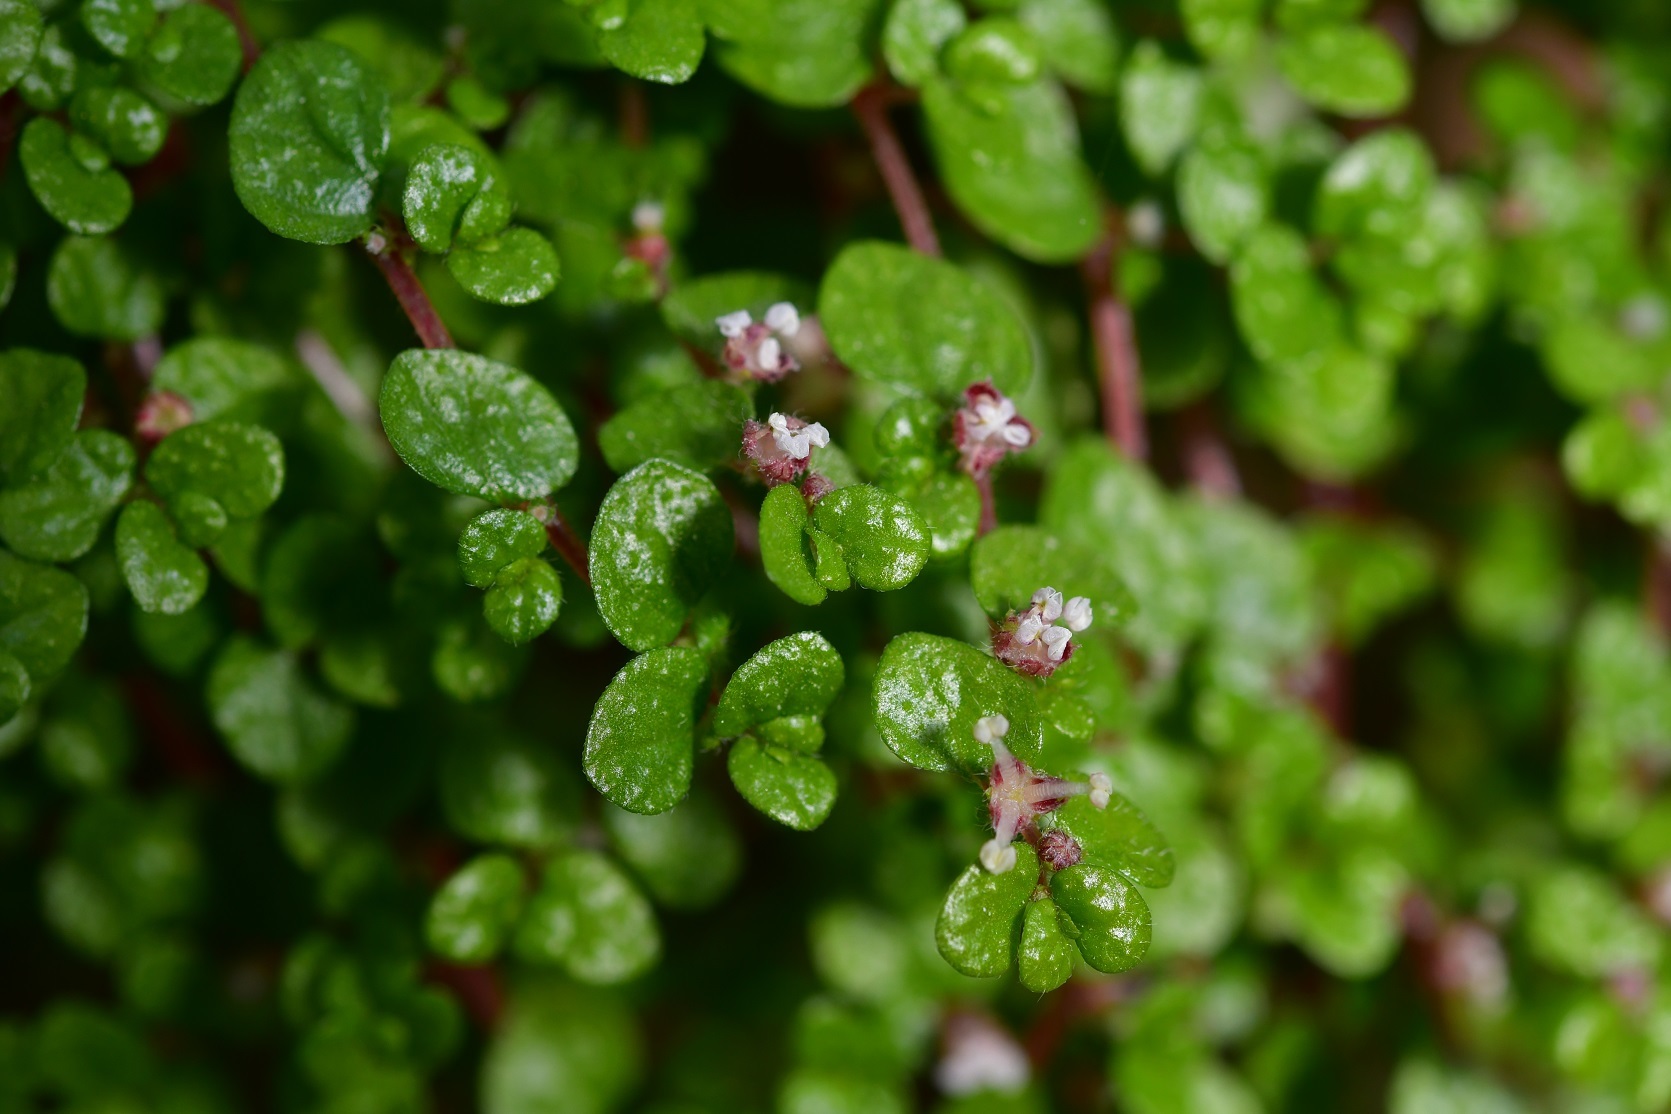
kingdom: Plantae
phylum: Tracheophyta
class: Magnoliopsida
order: Rosales
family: Urticaceae
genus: Soleirolia
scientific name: Soleirolia soleirolii
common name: Mind-your-own-business
